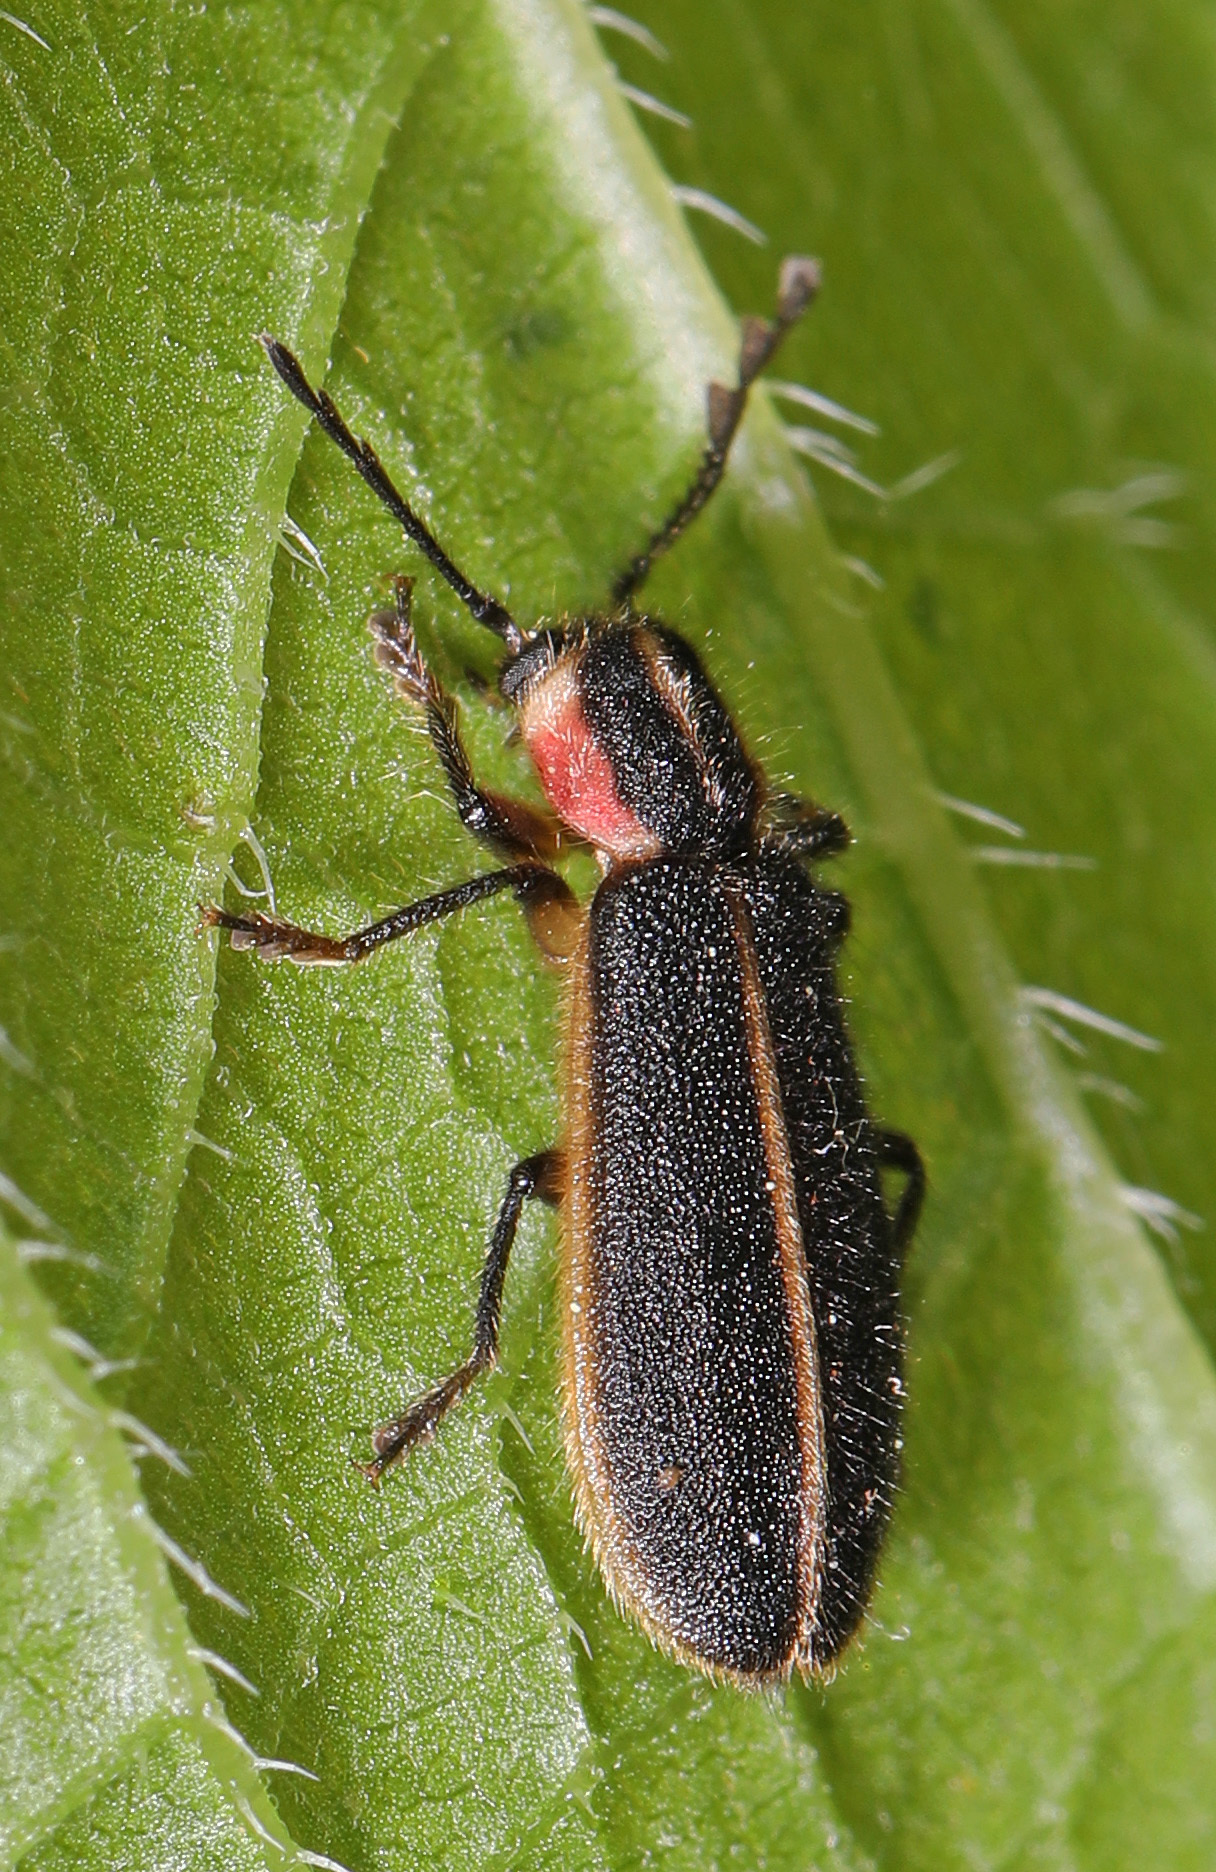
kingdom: Animalia
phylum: Arthropoda
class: Insecta
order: Coleoptera
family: Cleridae
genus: Chariessa
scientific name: Chariessa pilosa
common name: Pilose checkered beetle
